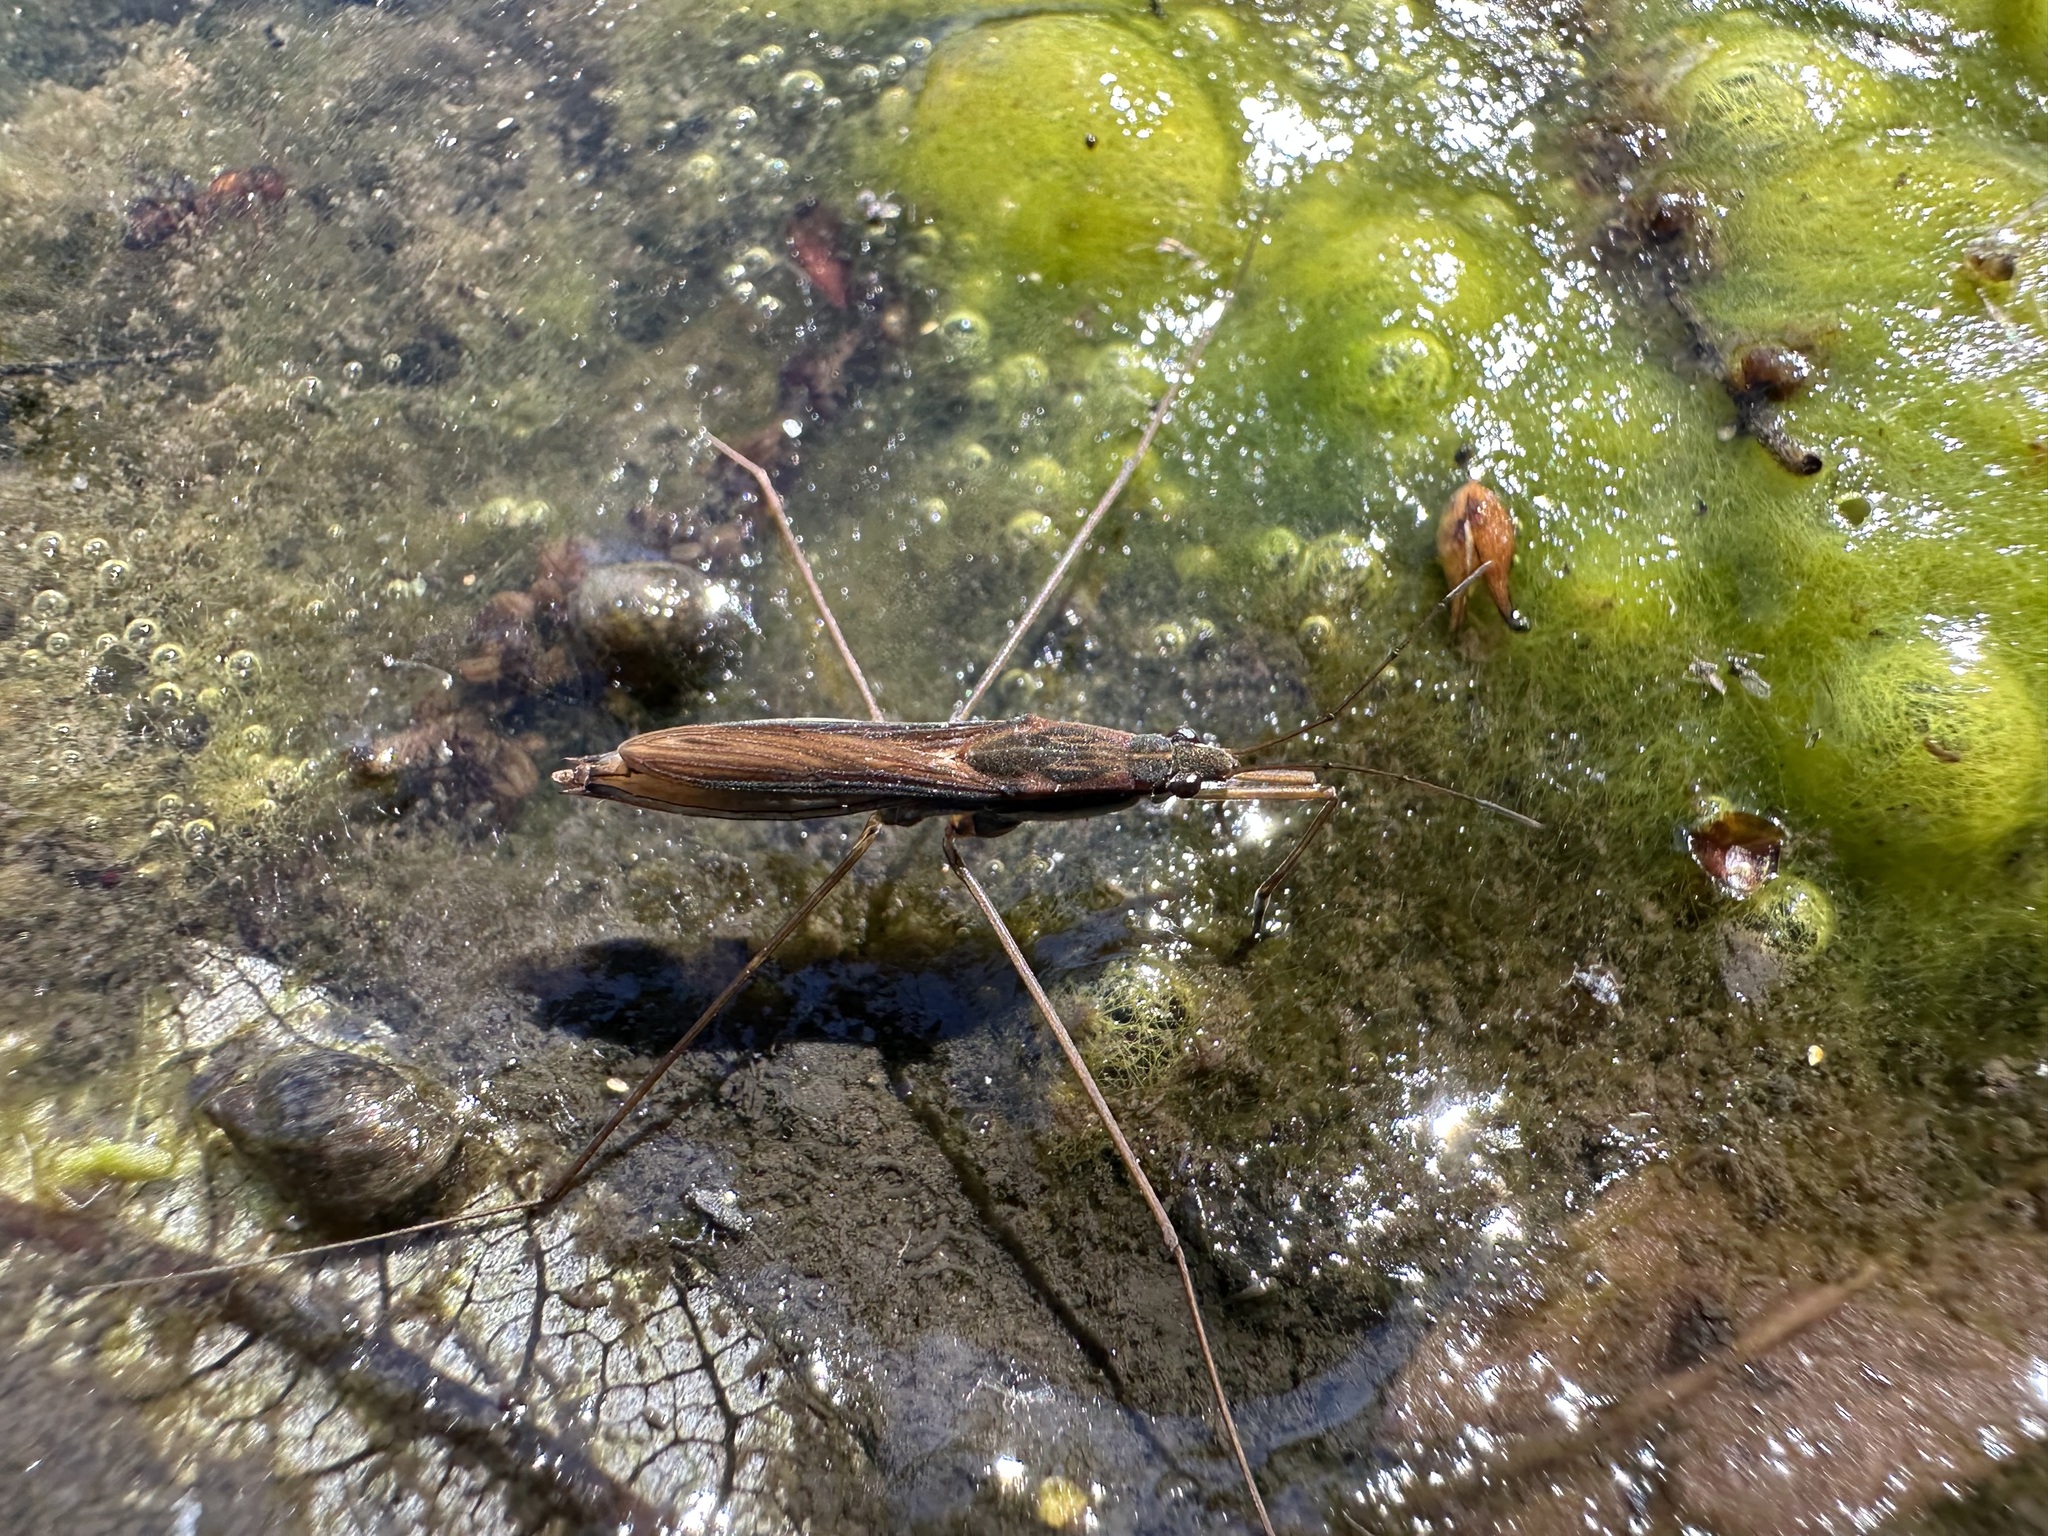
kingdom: Animalia
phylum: Arthropoda
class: Insecta
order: Hemiptera
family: Gerridae
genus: Limnoporus
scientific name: Limnoporus notabilis
